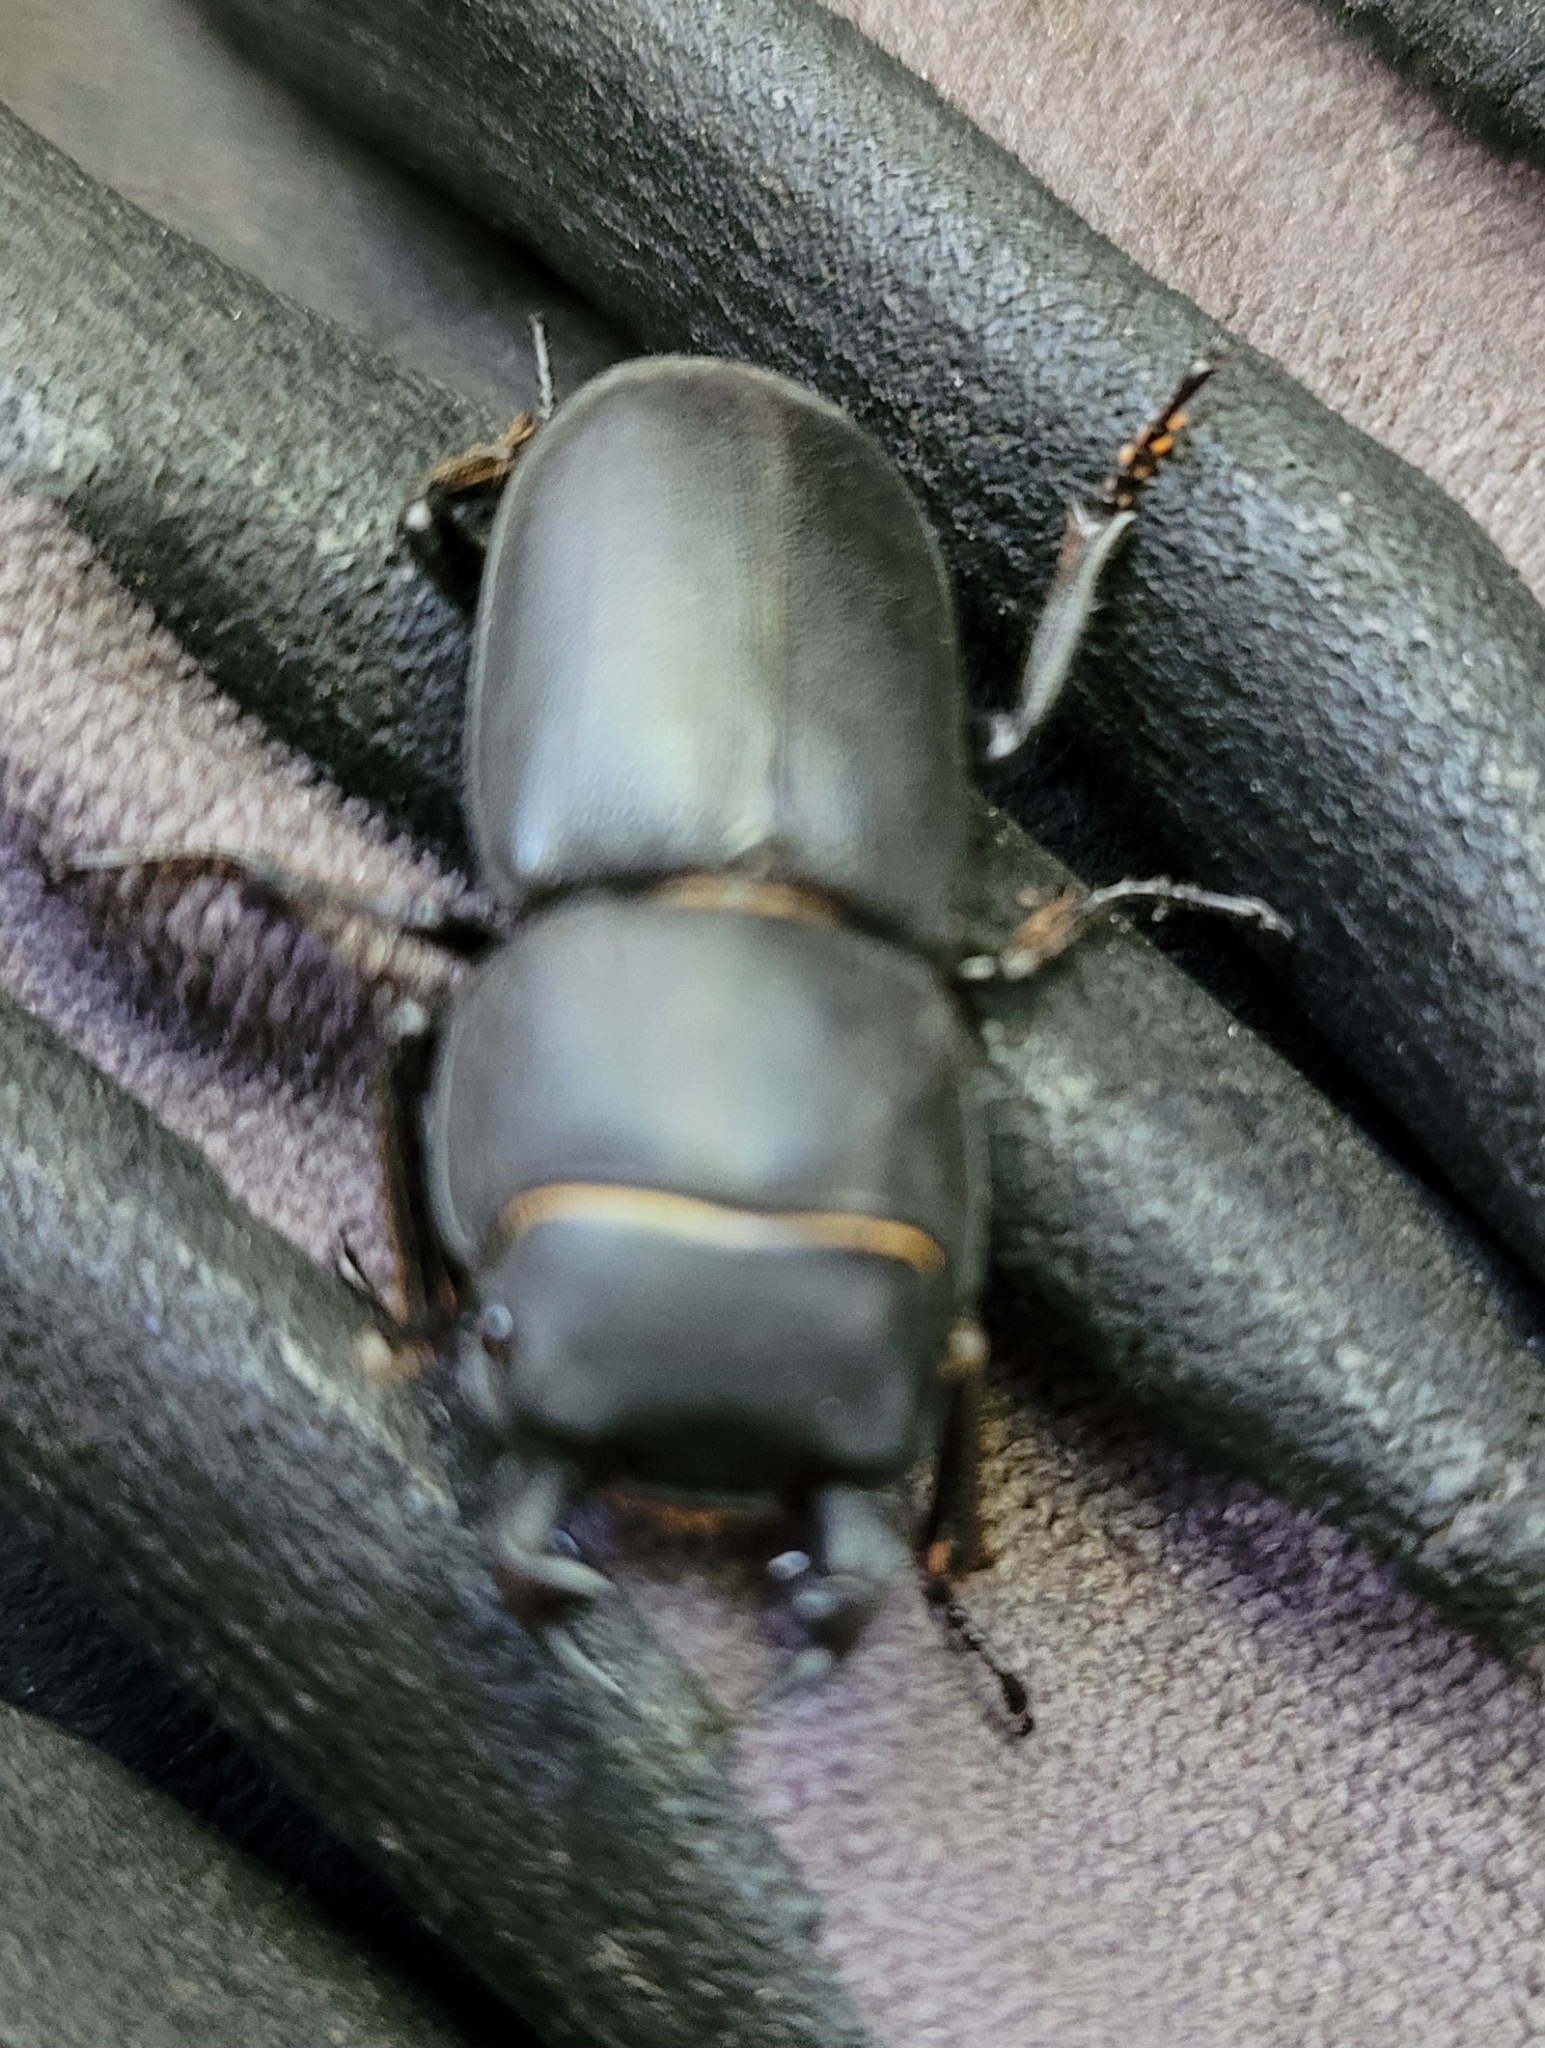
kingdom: Animalia
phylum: Arthropoda
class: Insecta
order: Coleoptera
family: Lucanidae
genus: Dorcus
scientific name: Dorcus parallelipipedus
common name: Lesser stag beetle
